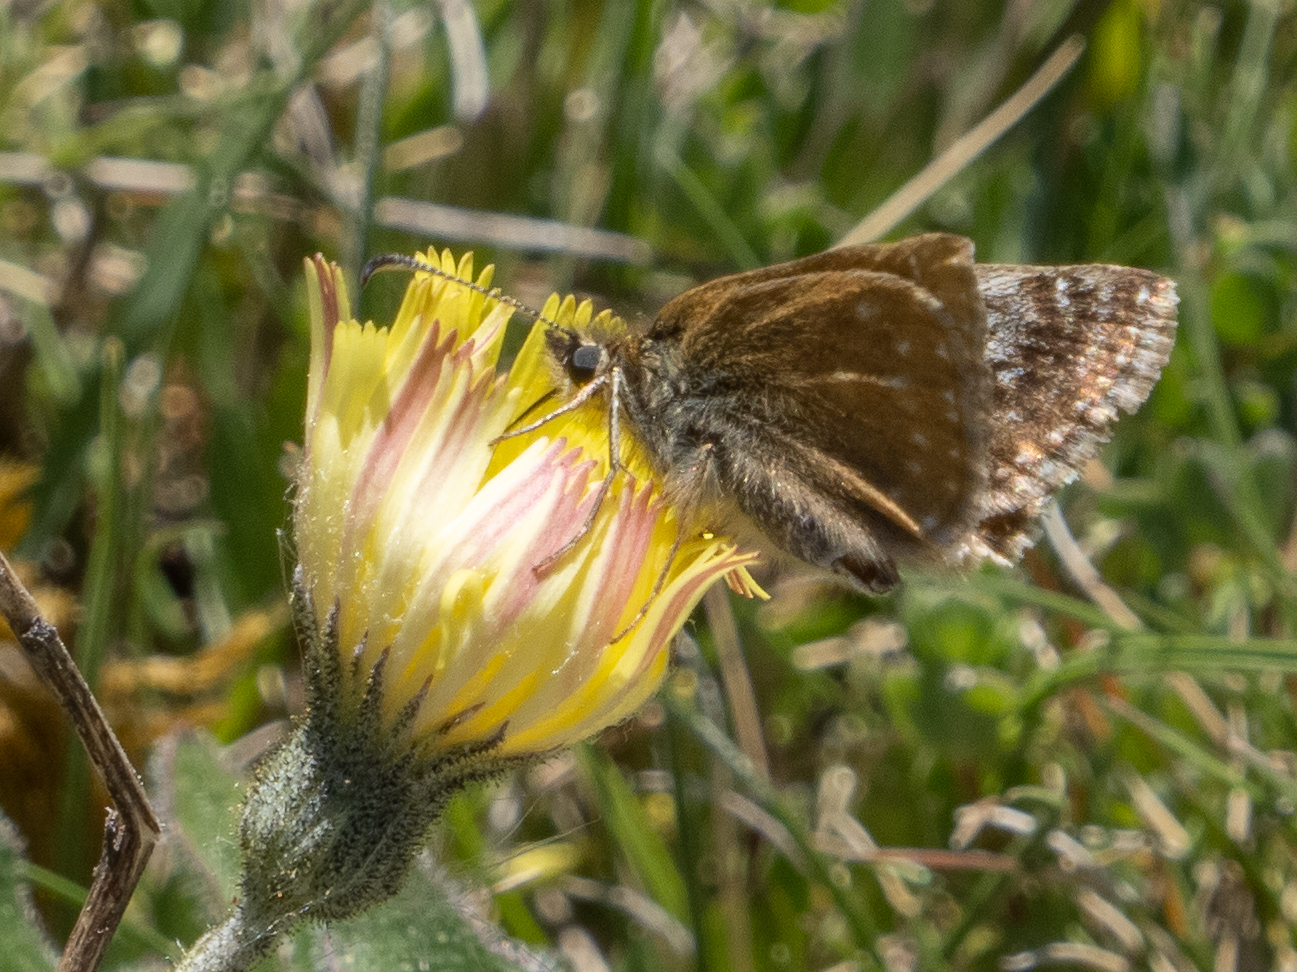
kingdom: Animalia
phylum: Arthropoda
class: Insecta
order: Lepidoptera
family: Hesperiidae
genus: Erynnis
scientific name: Erynnis tages
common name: Dingy skipper
